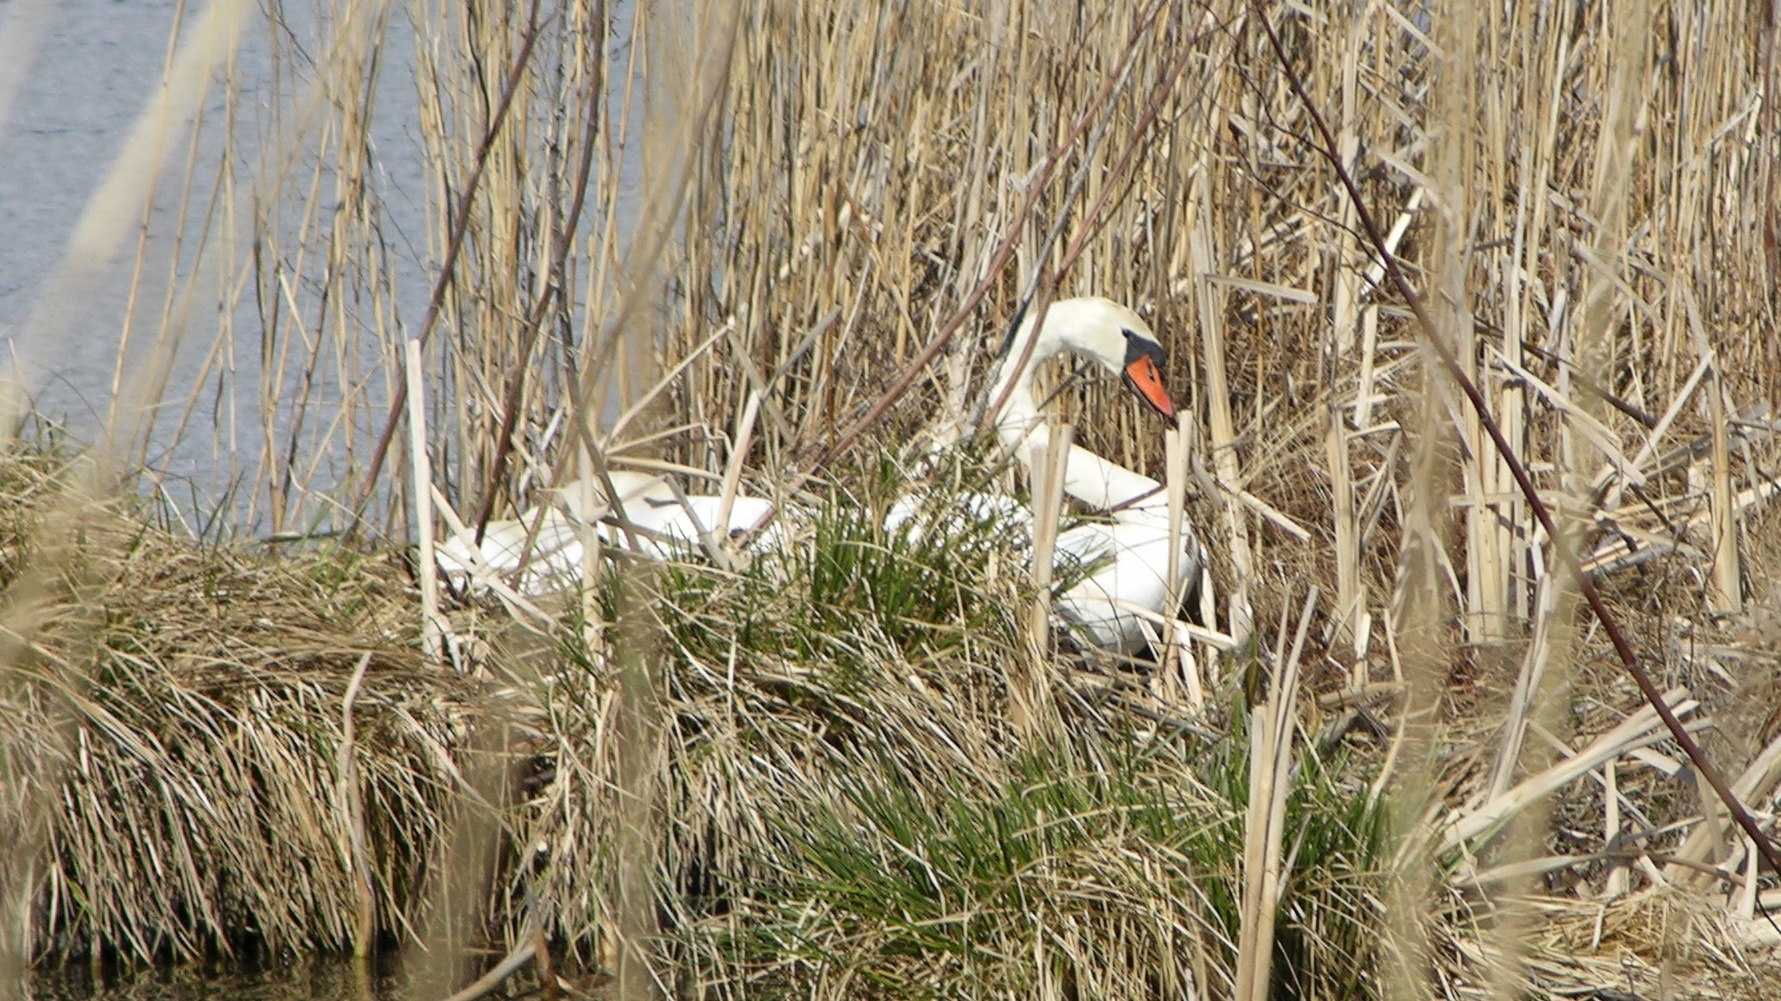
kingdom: Animalia
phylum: Chordata
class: Aves
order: Anseriformes
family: Anatidae
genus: Cygnus
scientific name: Cygnus olor
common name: Mute swan
